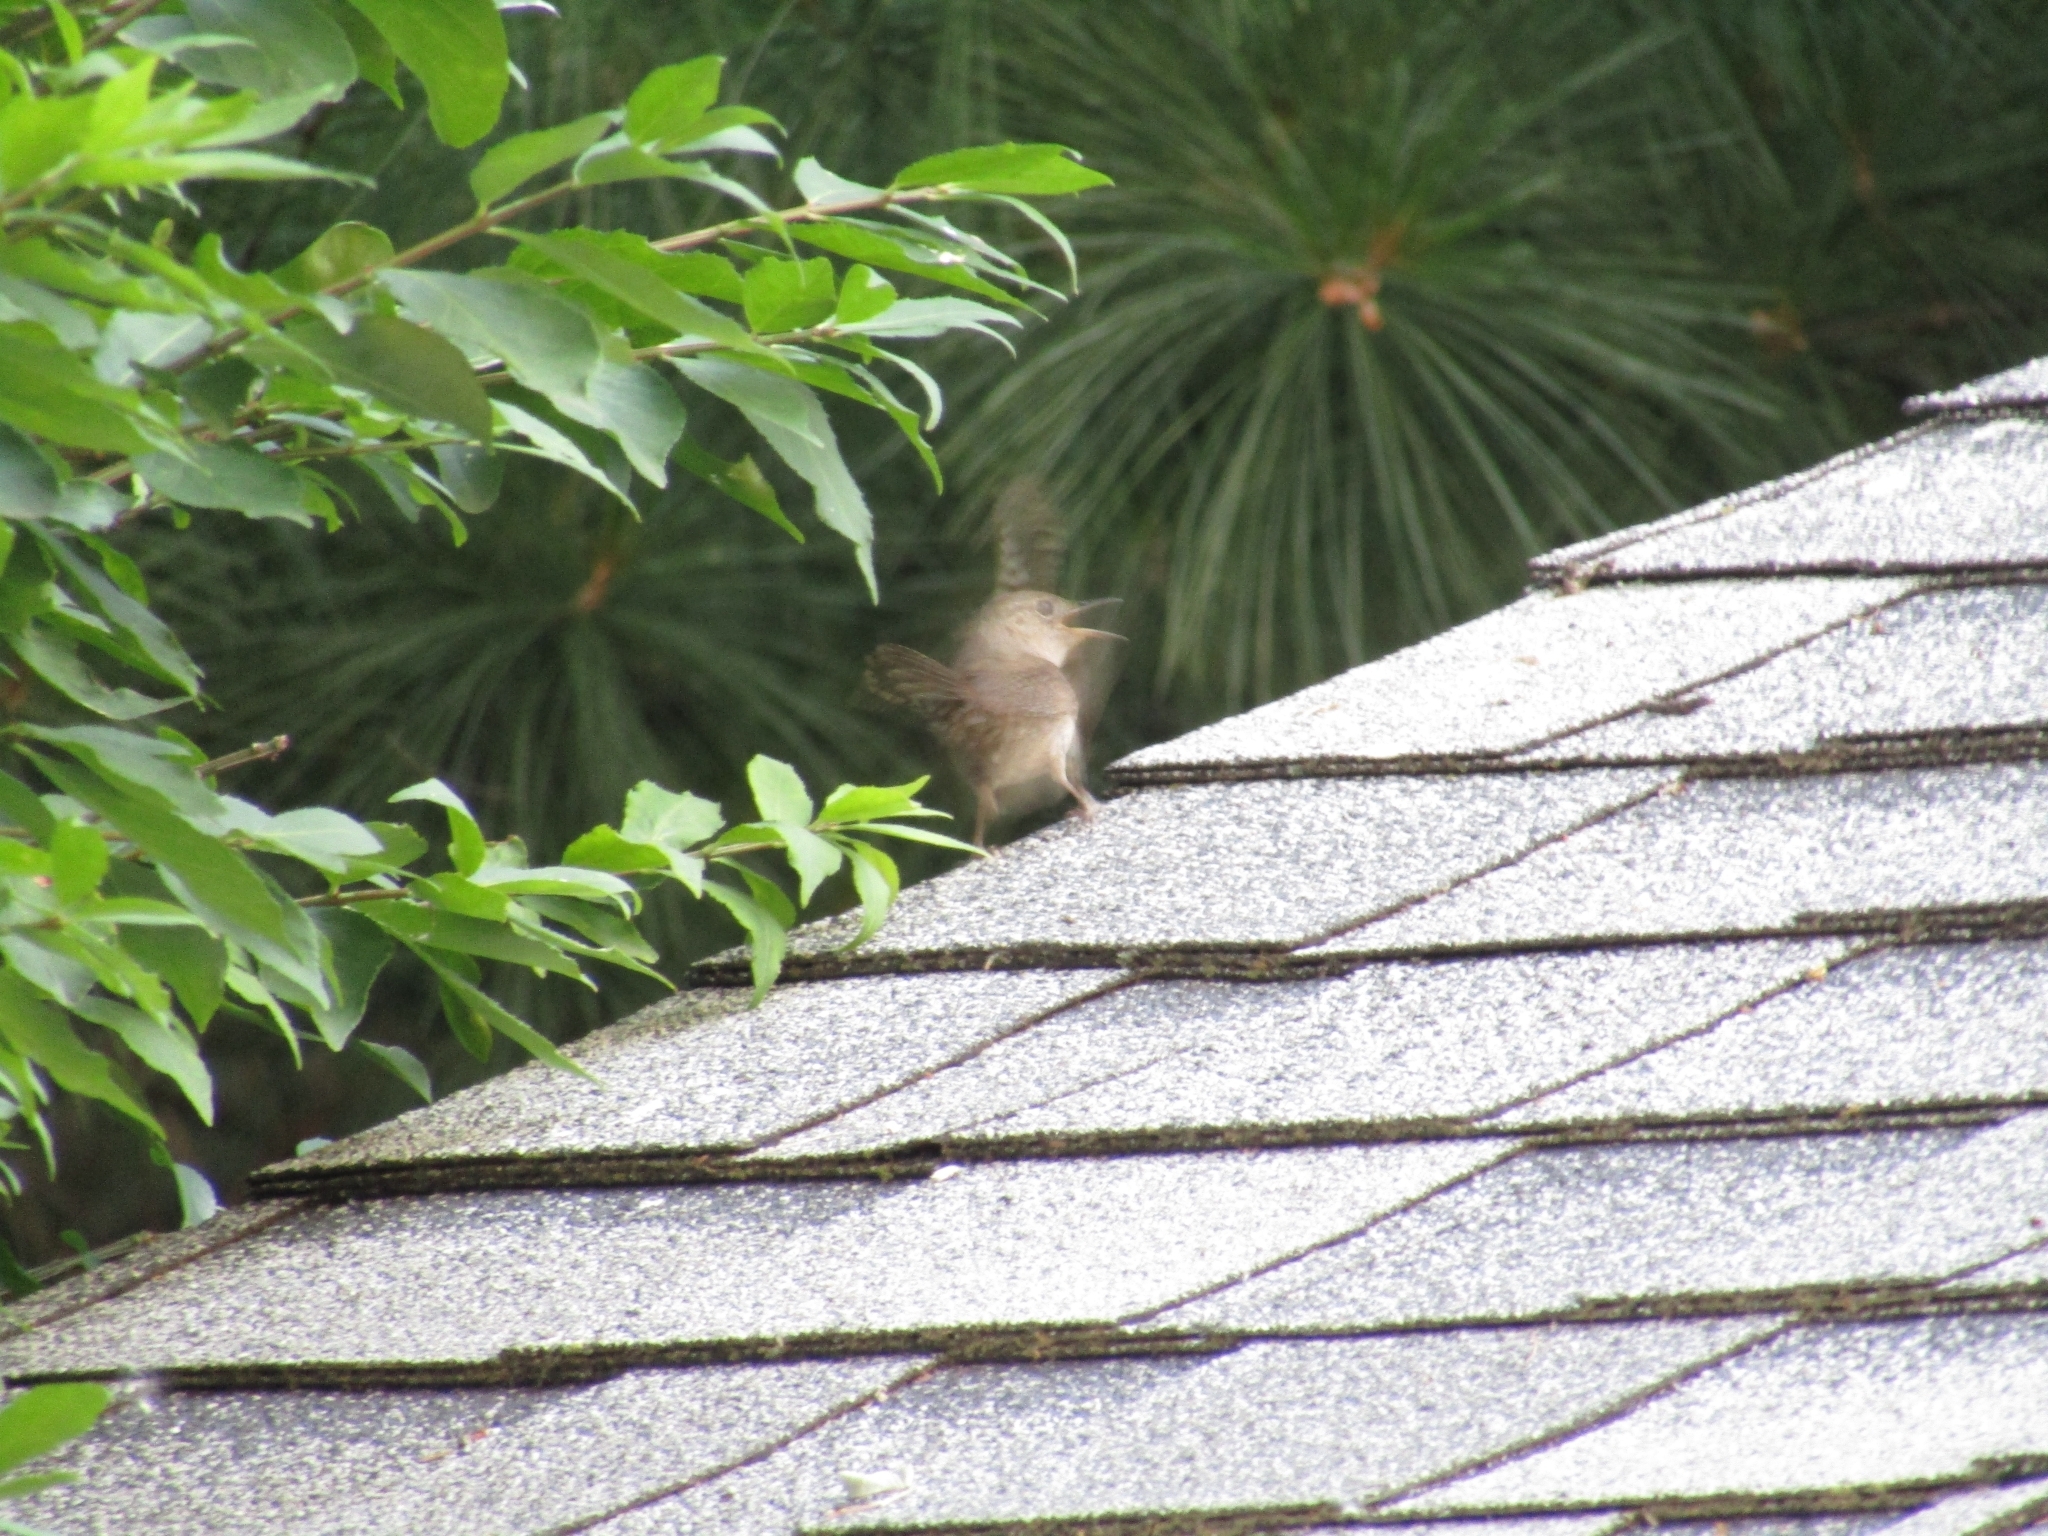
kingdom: Animalia
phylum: Chordata
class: Aves
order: Passeriformes
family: Troglodytidae
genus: Troglodytes
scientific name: Troglodytes aedon
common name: House wren
